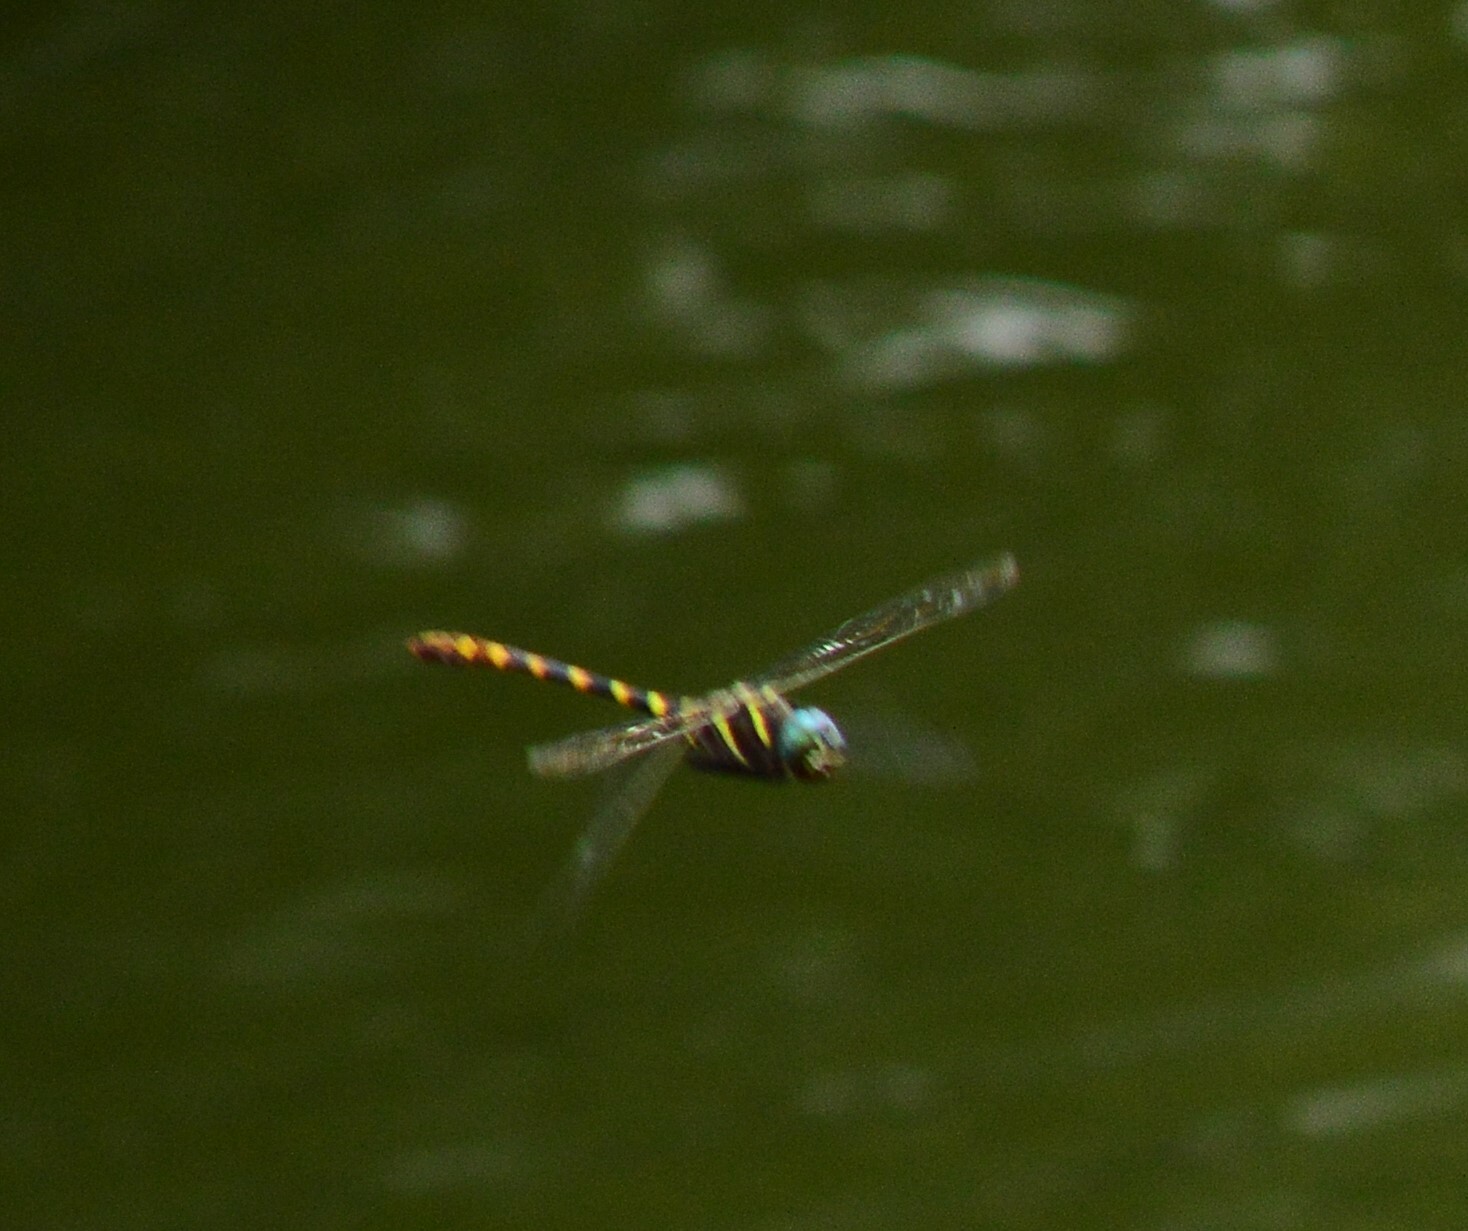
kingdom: Animalia
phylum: Arthropoda
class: Insecta
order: Odonata
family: Macromiidae
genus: Epophthalmia
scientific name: Epophthalmia vittata
